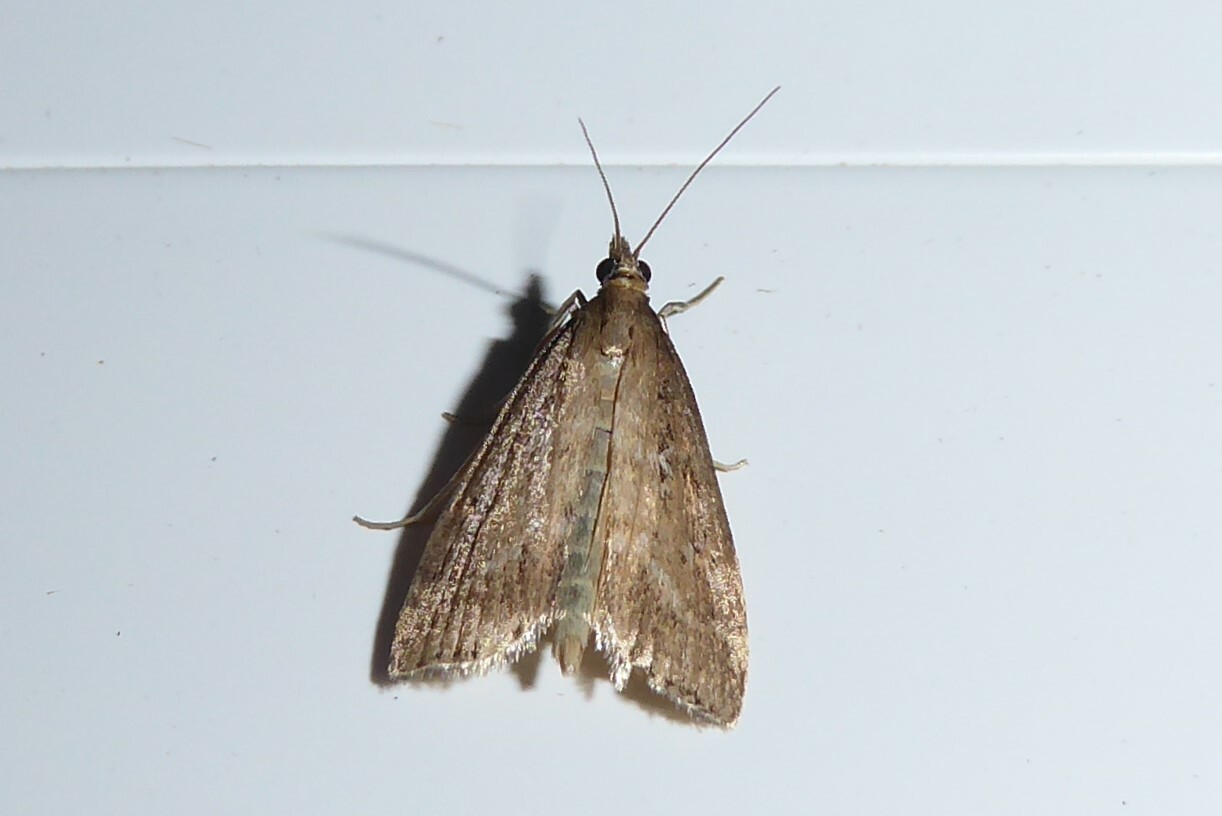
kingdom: Animalia
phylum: Arthropoda
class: Insecta
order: Lepidoptera
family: Crambidae
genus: Eudonia
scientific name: Eudonia octophora
